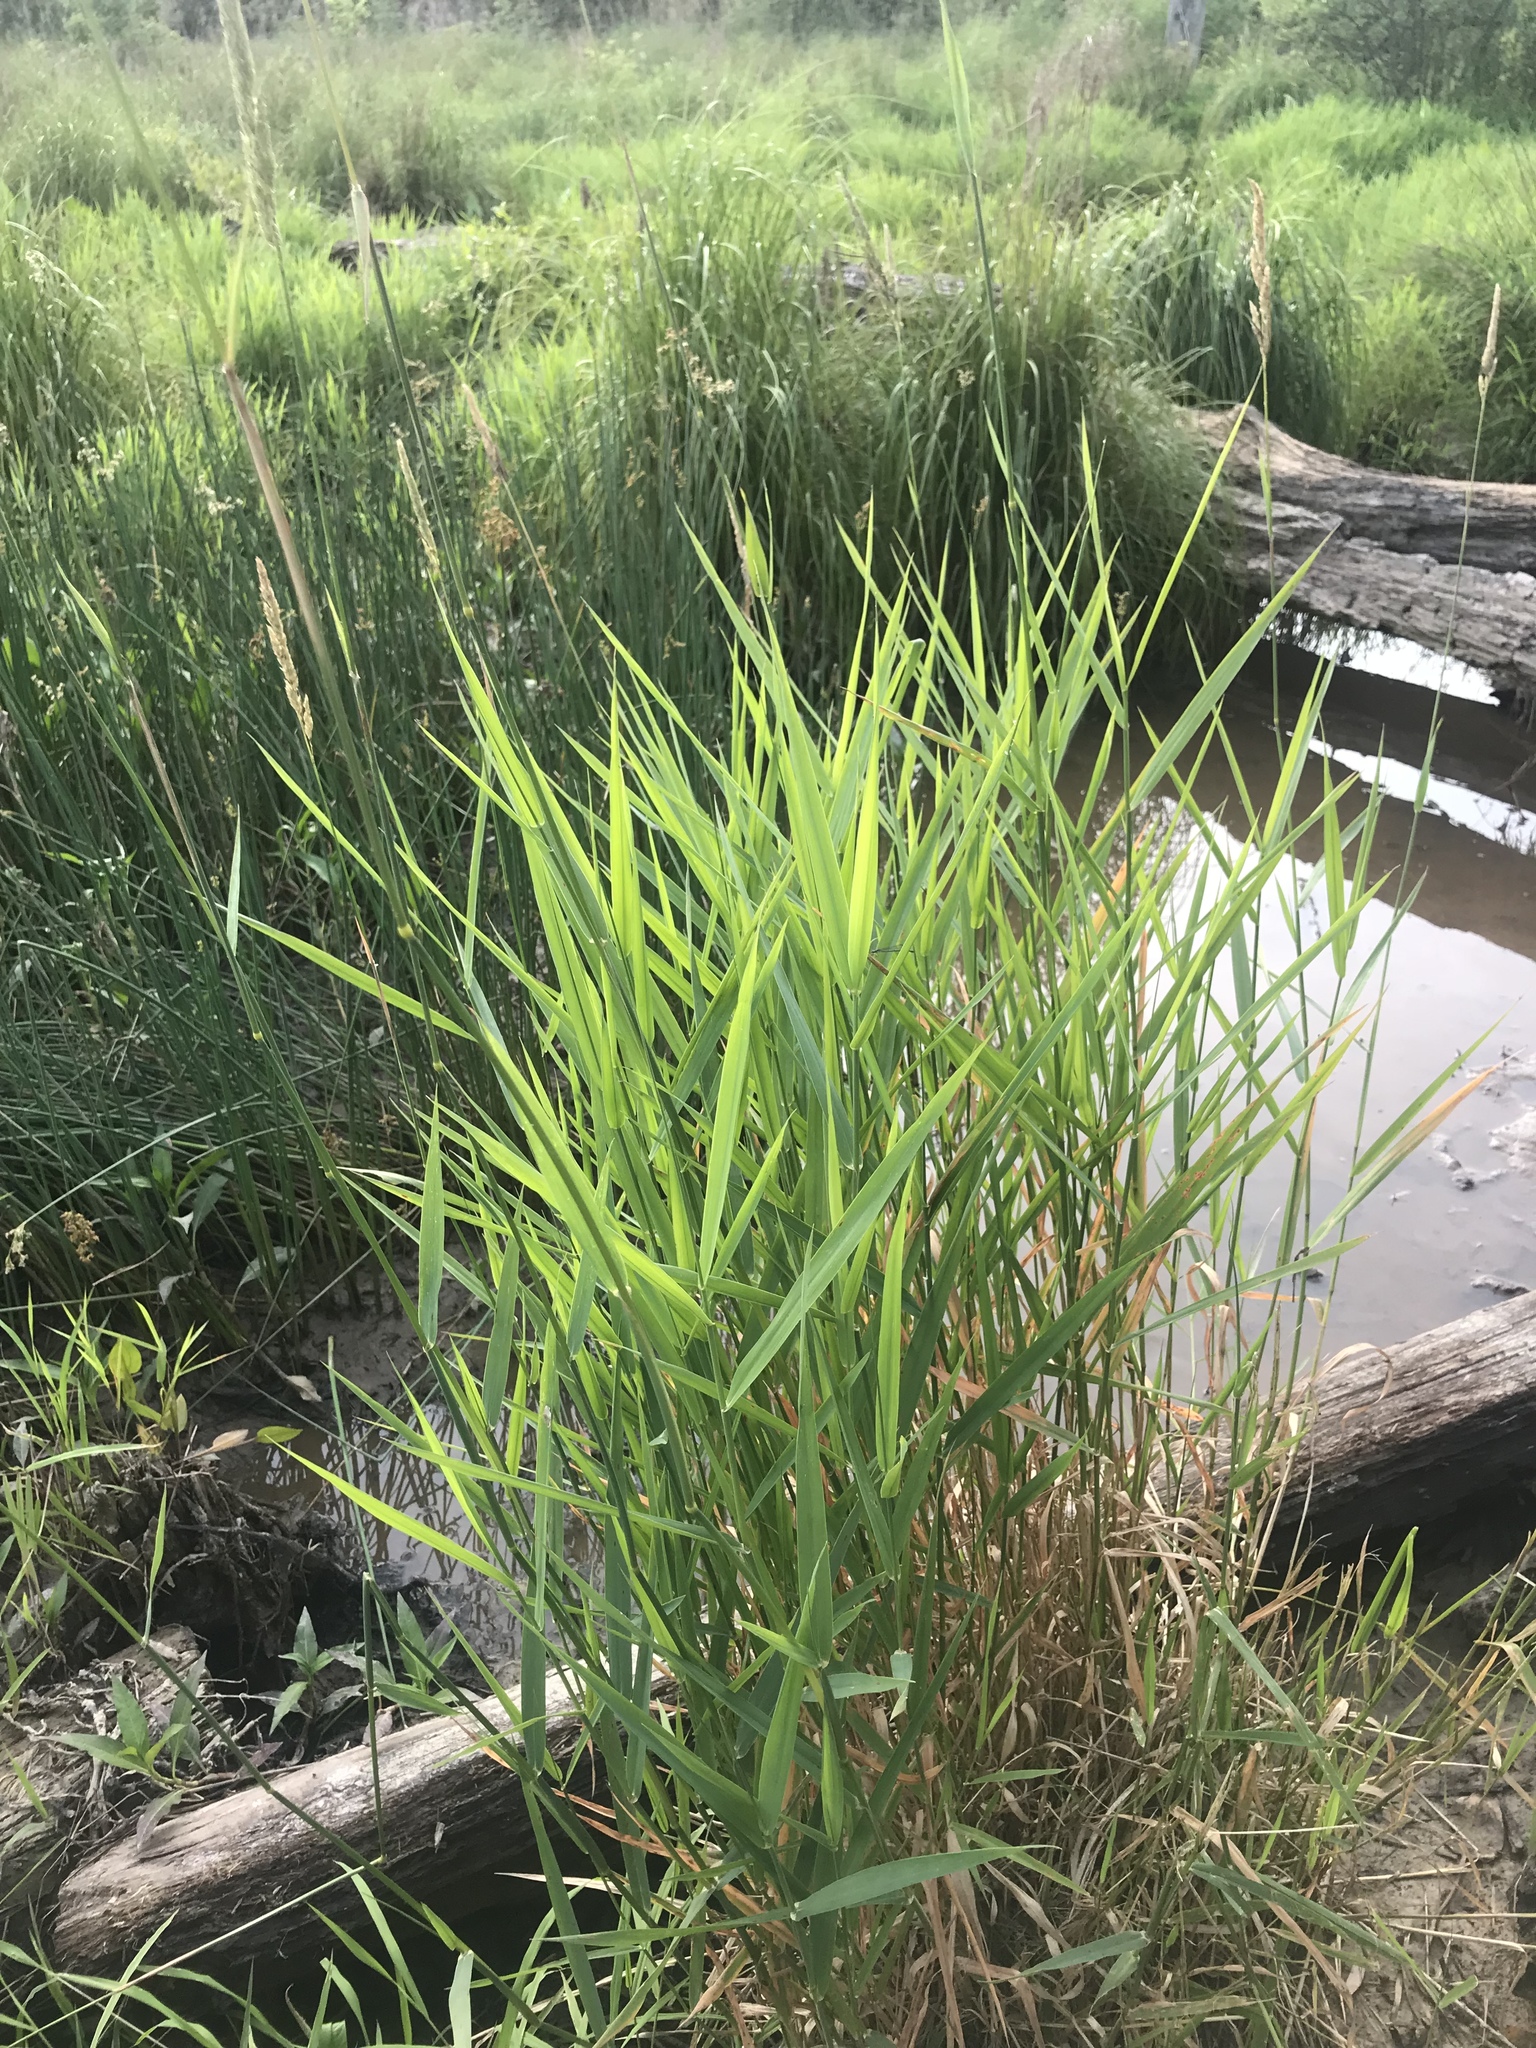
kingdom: Plantae
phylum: Tracheophyta
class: Liliopsida
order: Poales
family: Poaceae
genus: Phalaris
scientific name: Phalaris arundinacea
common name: Reed canary-grass
